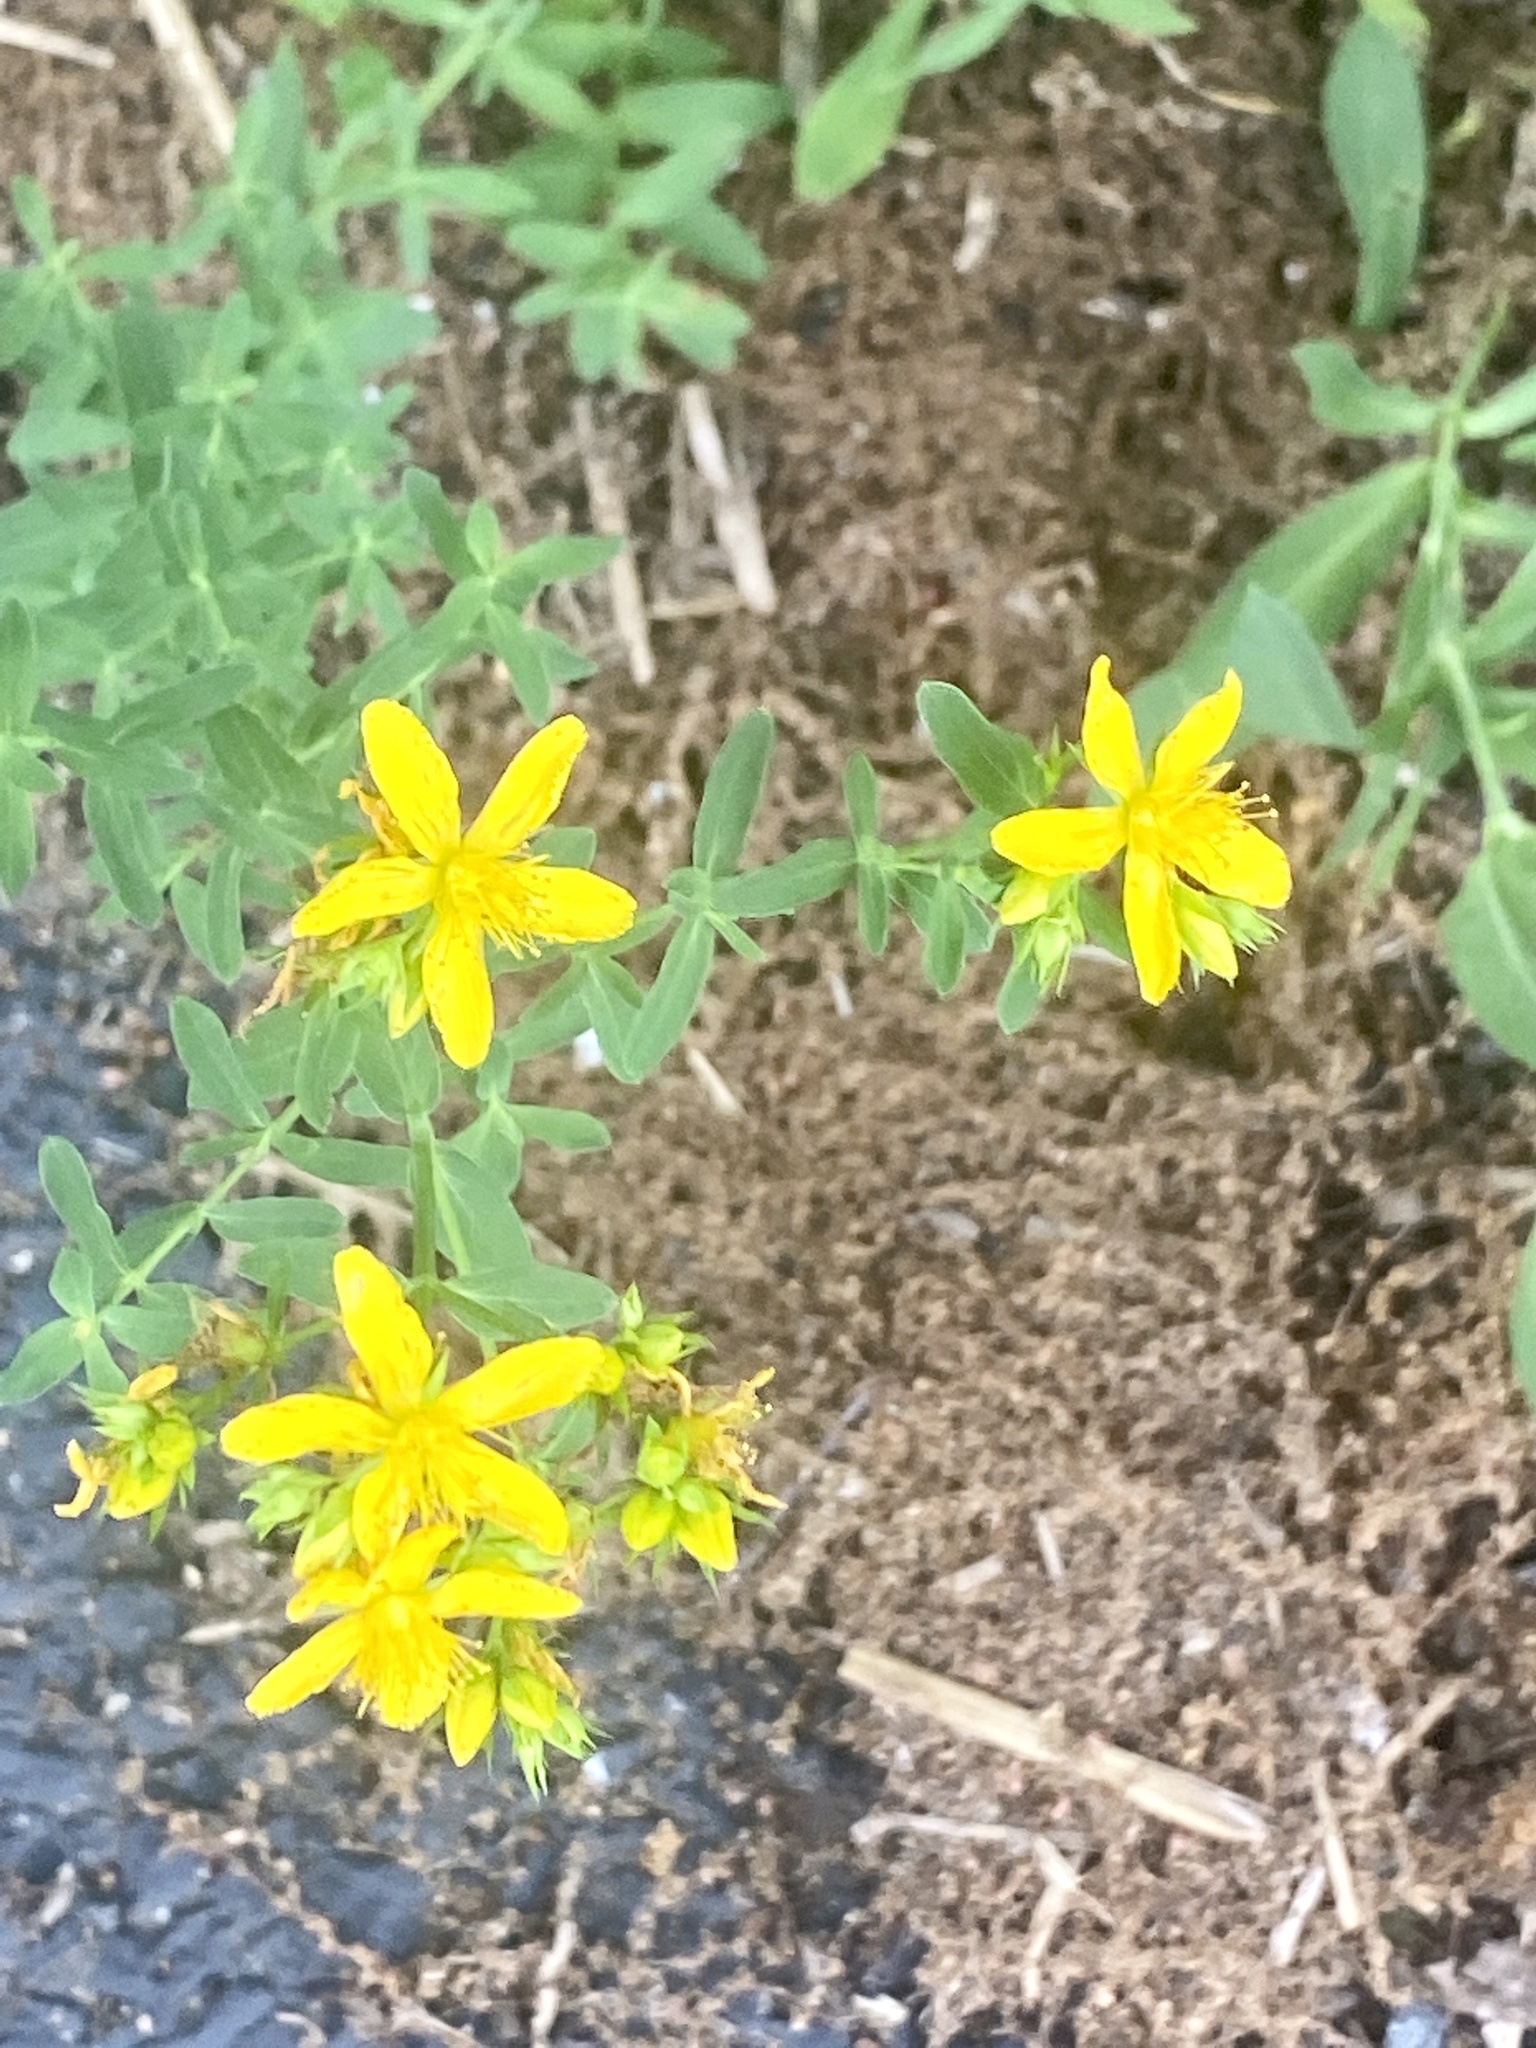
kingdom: Plantae
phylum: Tracheophyta
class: Magnoliopsida
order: Malpighiales
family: Hypericaceae
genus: Hypericum
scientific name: Hypericum perforatum
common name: Common st. johnswort
